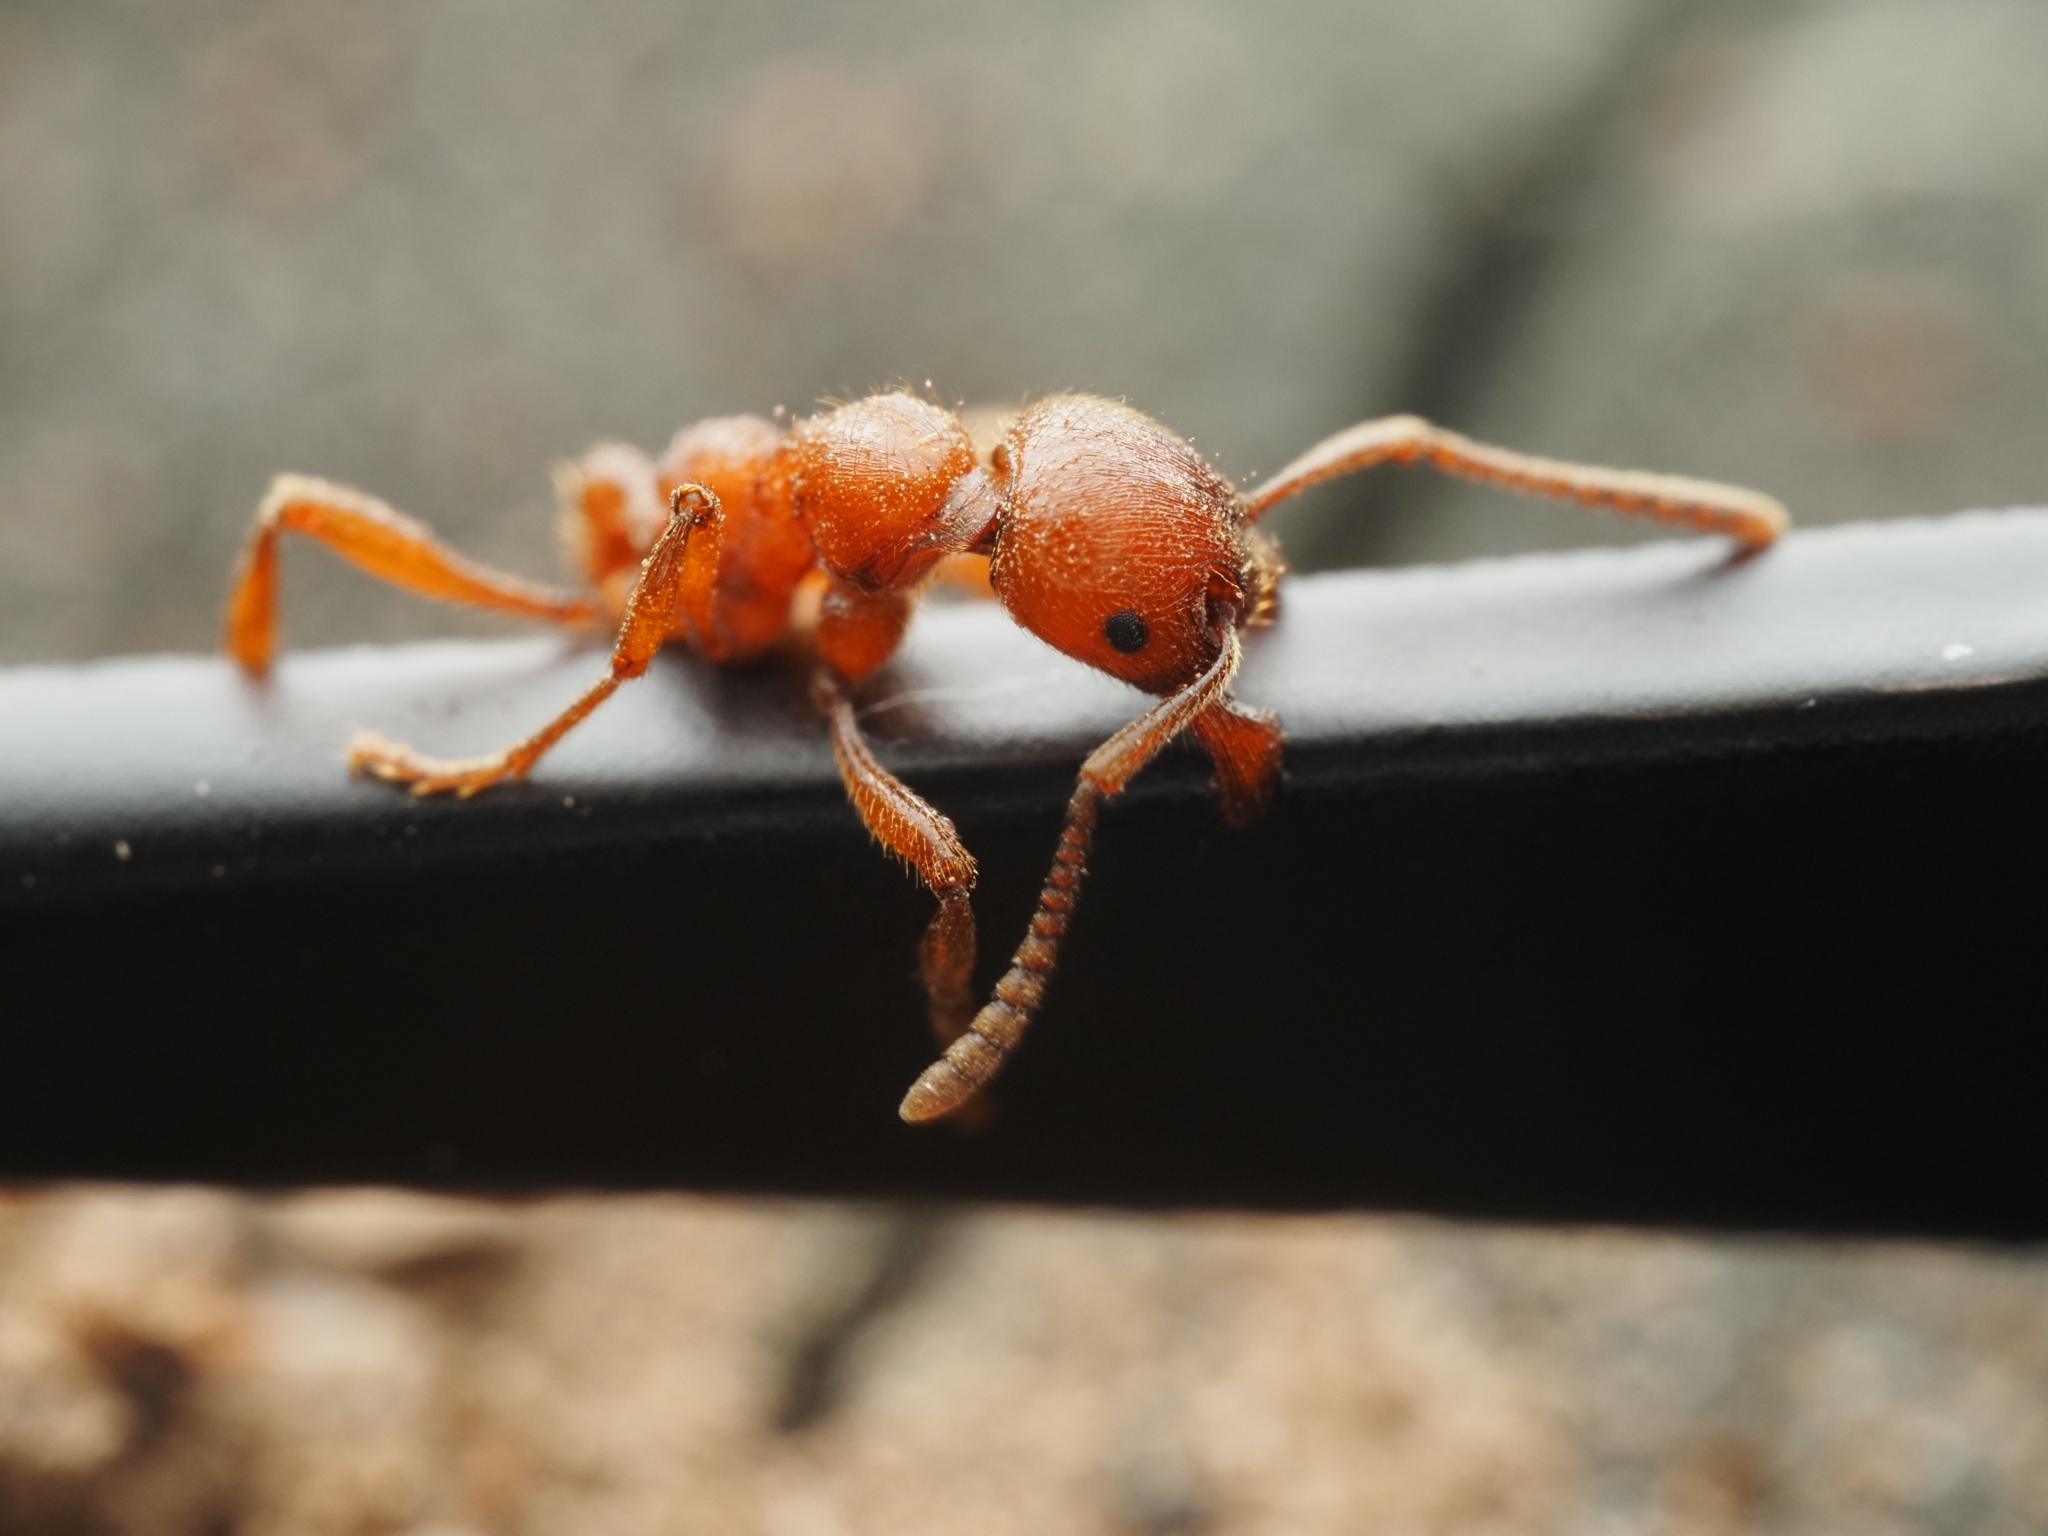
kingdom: Animalia
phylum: Arthropoda
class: Insecta
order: Hymenoptera
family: Formicidae
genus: Manica
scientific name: Manica rubida
